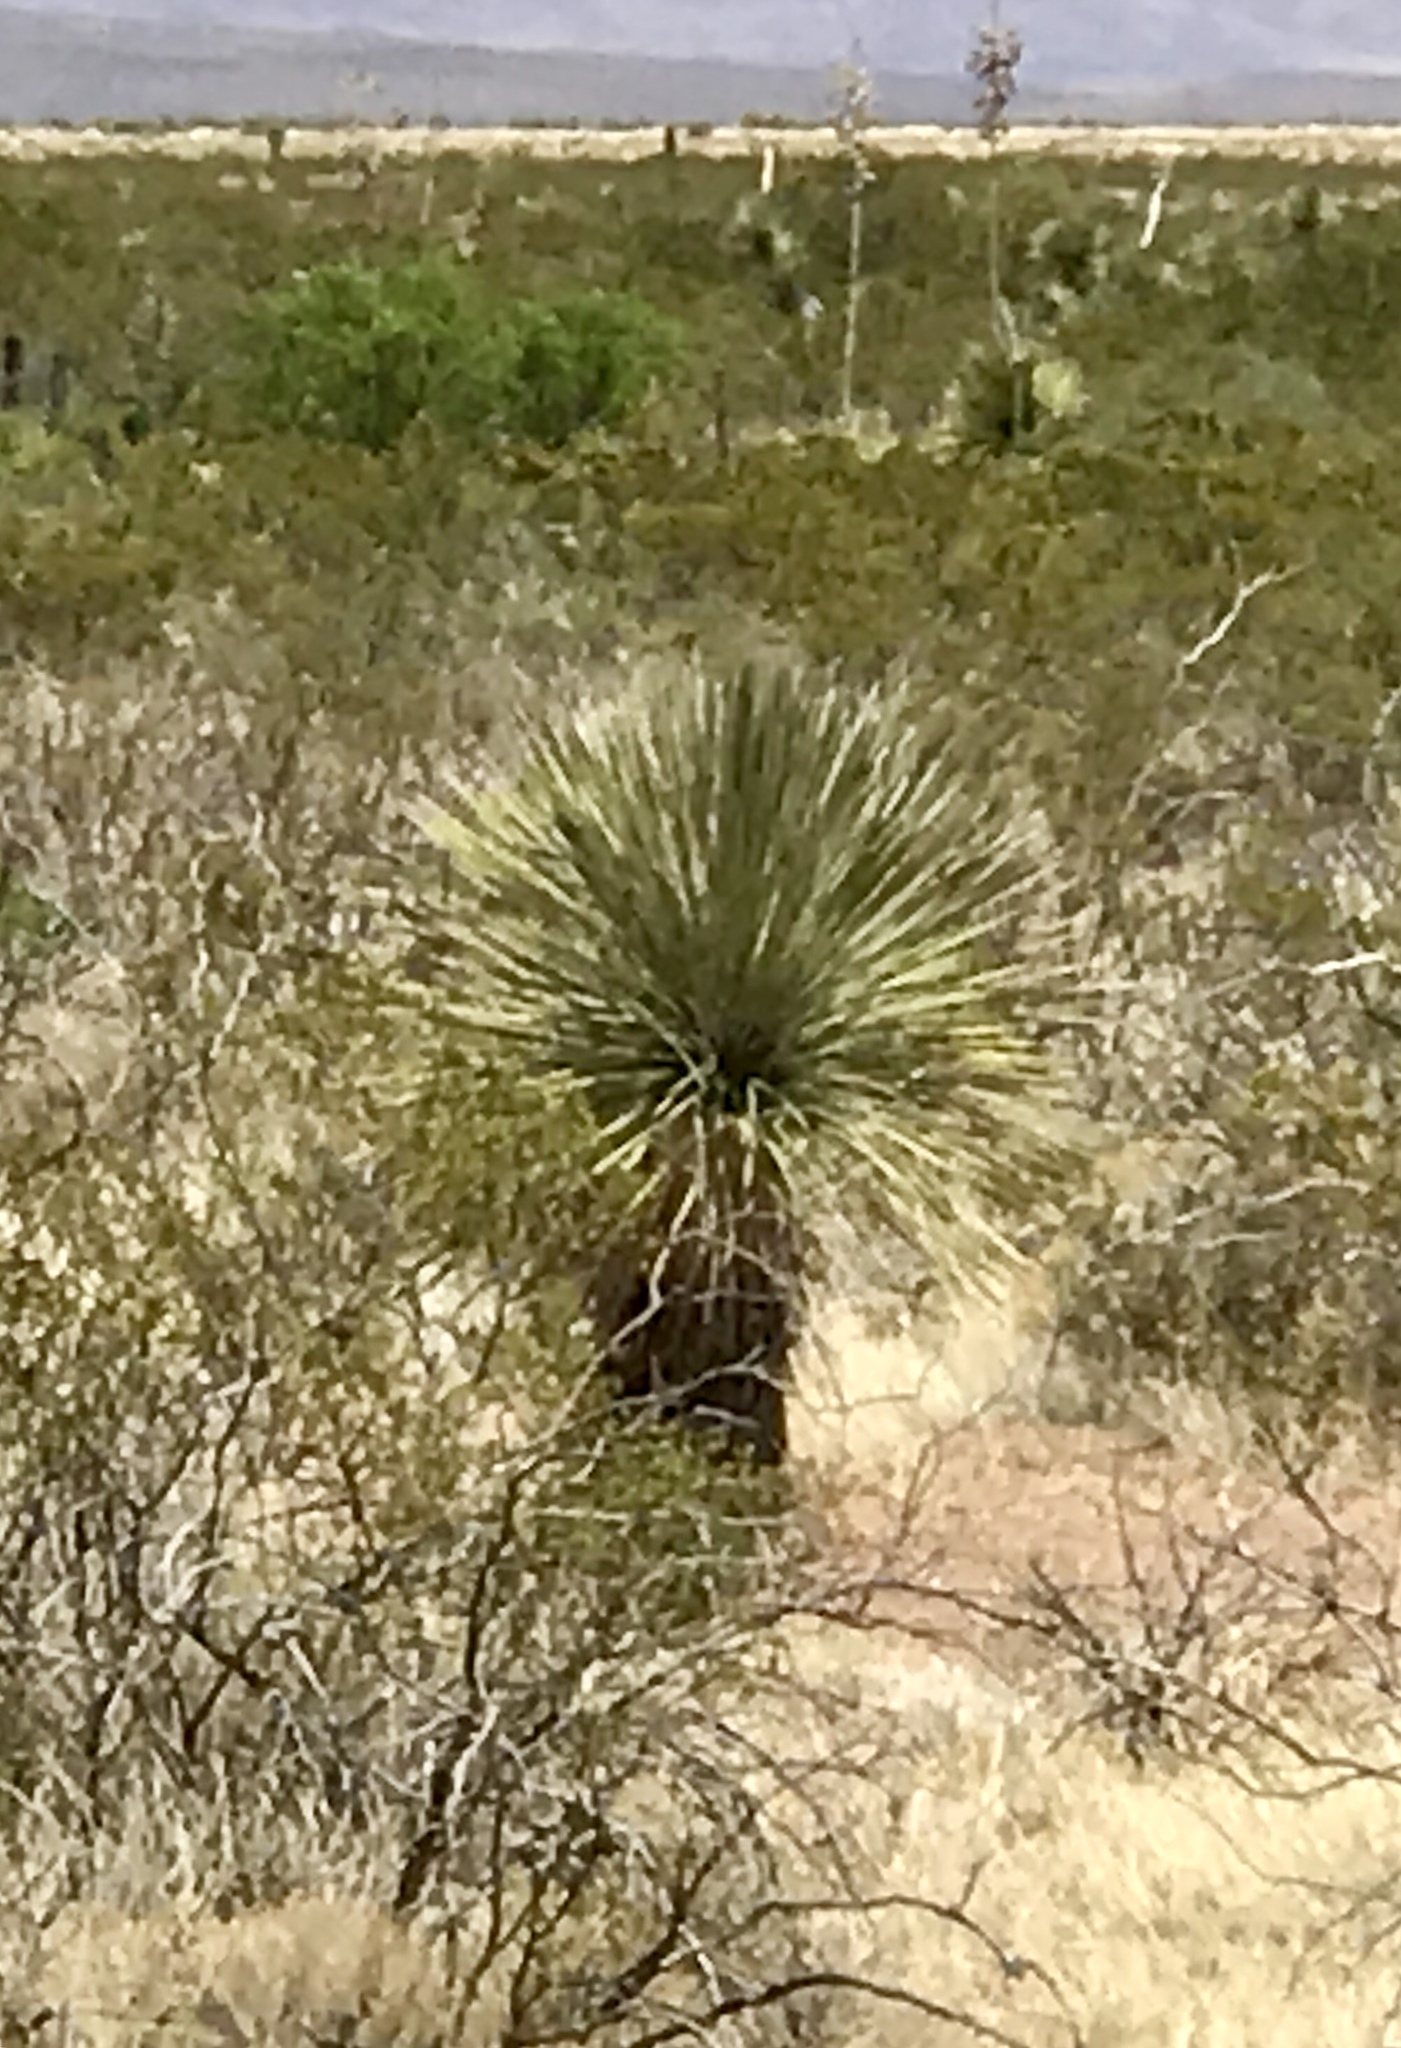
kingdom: Plantae
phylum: Tracheophyta
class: Liliopsida
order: Asparagales
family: Asparagaceae
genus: Yucca
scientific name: Yucca elata
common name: Palmella
